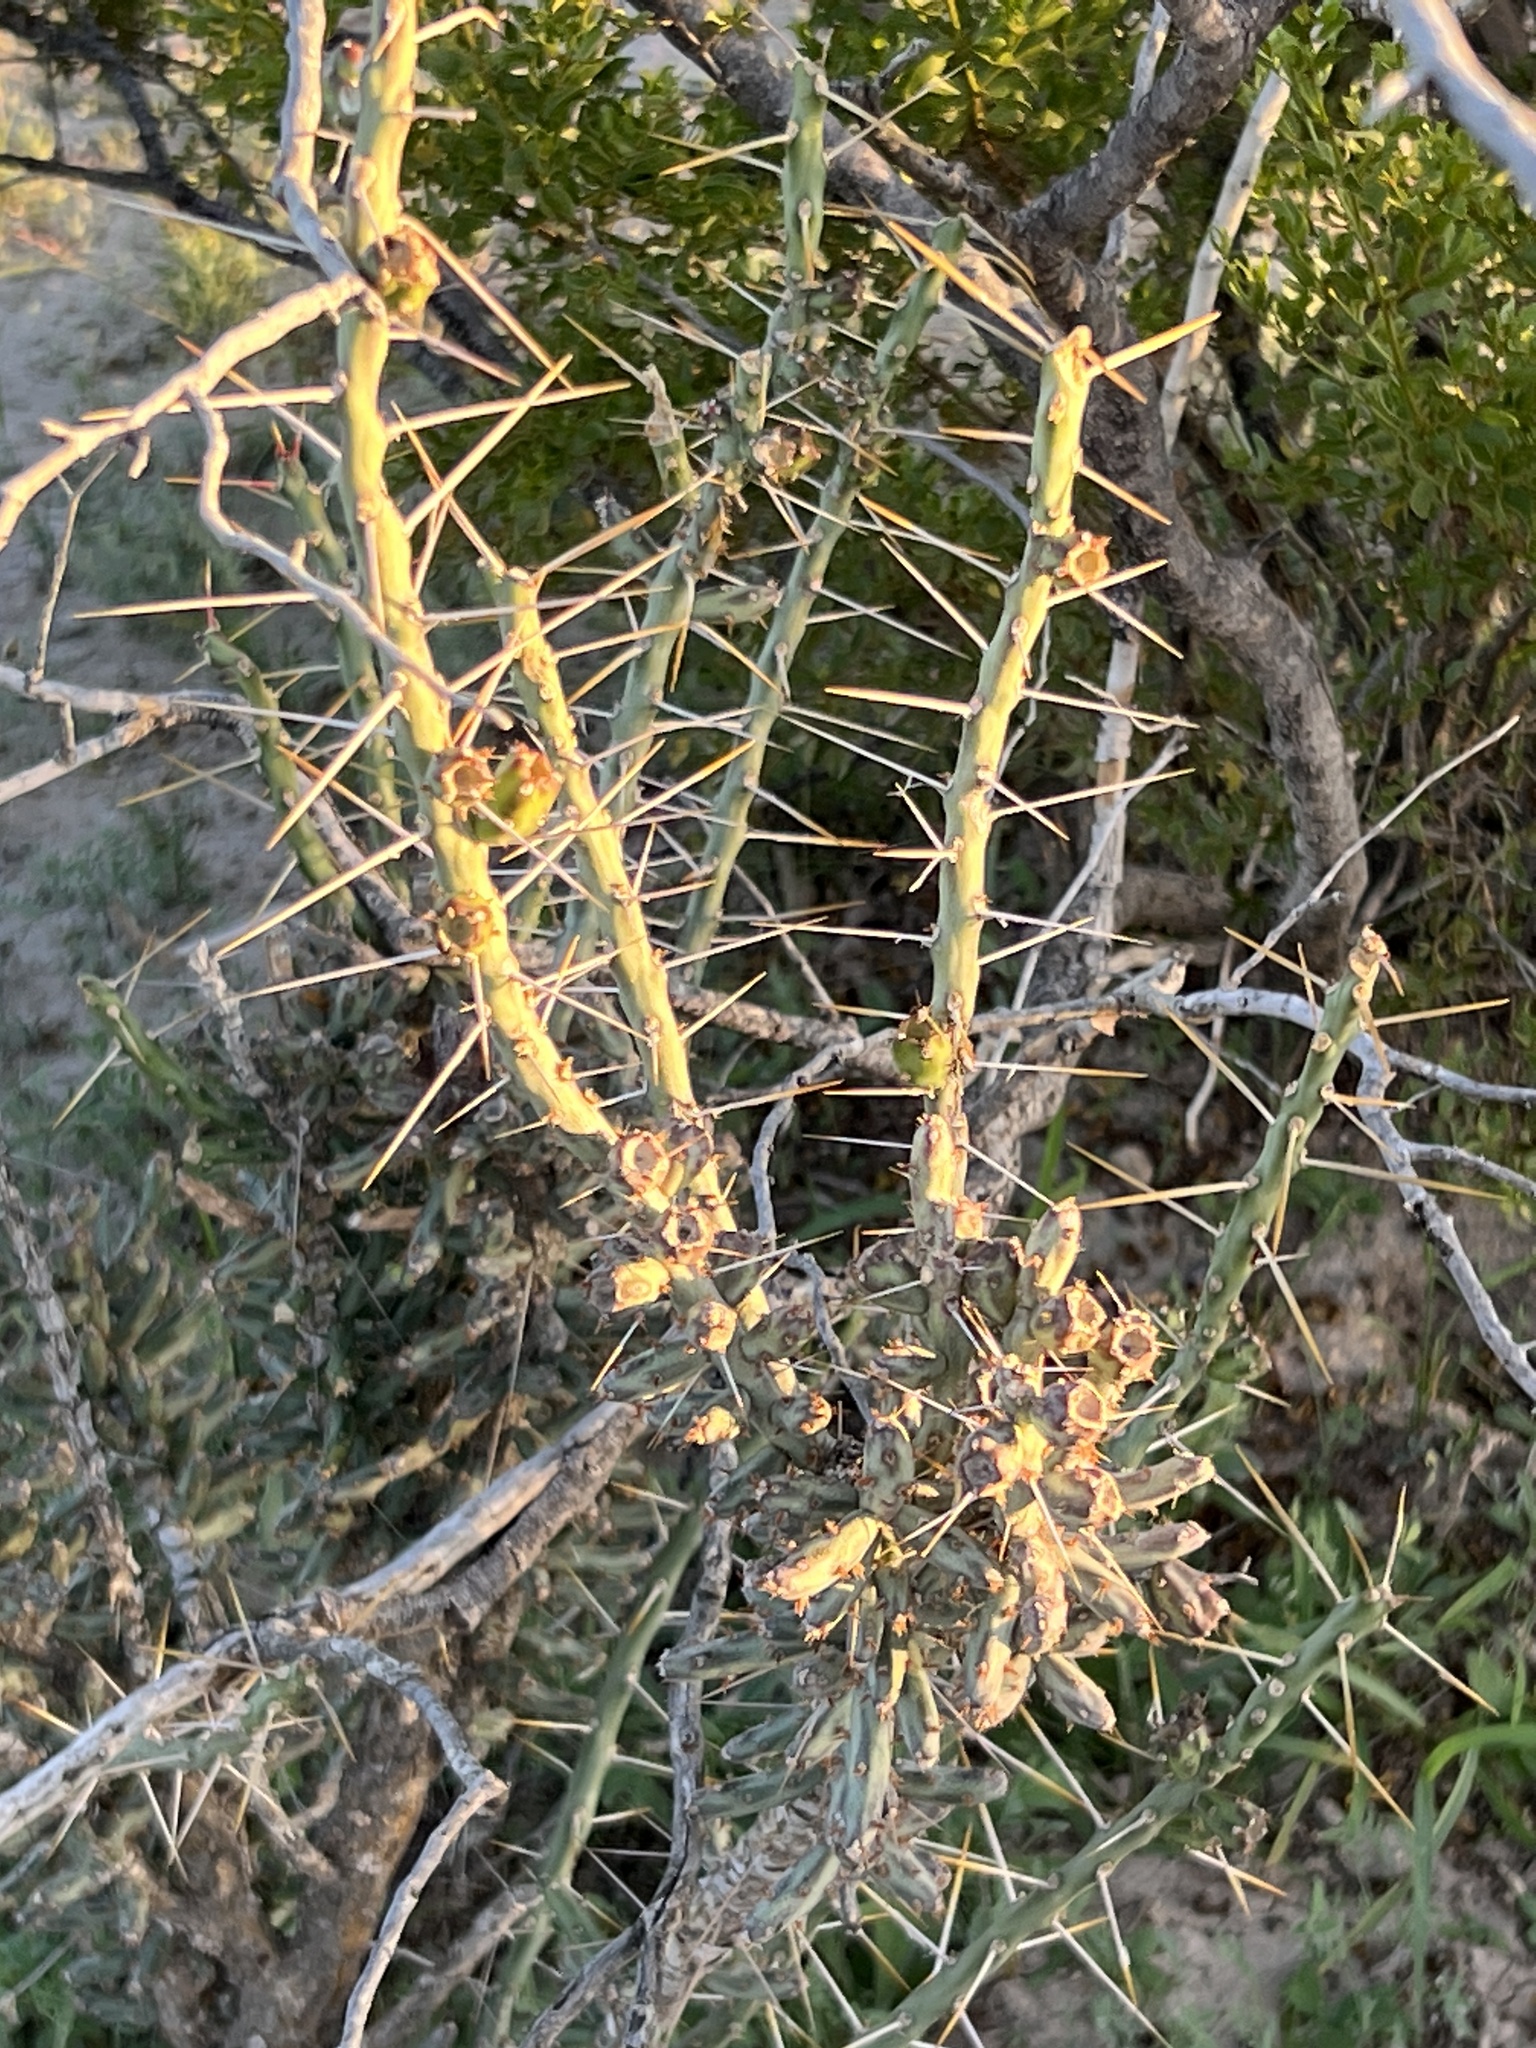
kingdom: Plantae
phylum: Tracheophyta
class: Magnoliopsida
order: Caryophyllales
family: Cactaceae
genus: Cylindropuntia
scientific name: Cylindropuntia leptocaulis
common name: Christmas cactus
